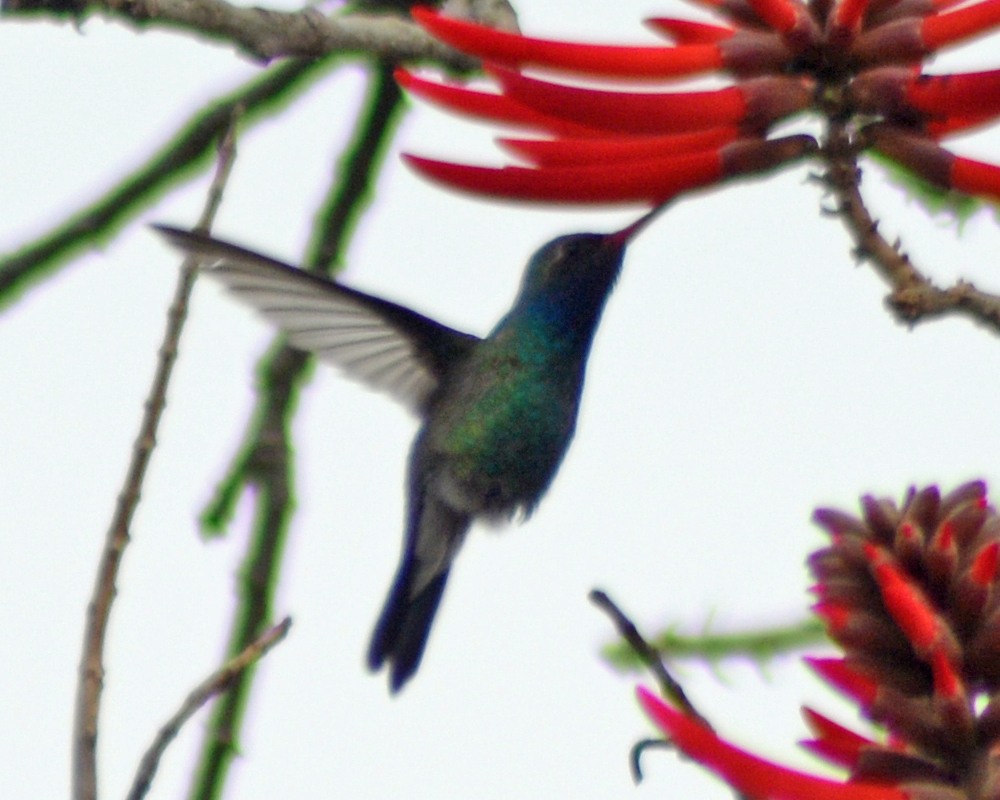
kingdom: Animalia
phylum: Chordata
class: Aves
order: Apodiformes
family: Trochilidae
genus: Cynanthus
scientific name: Cynanthus latirostris
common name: Broad-billed hummingbird
